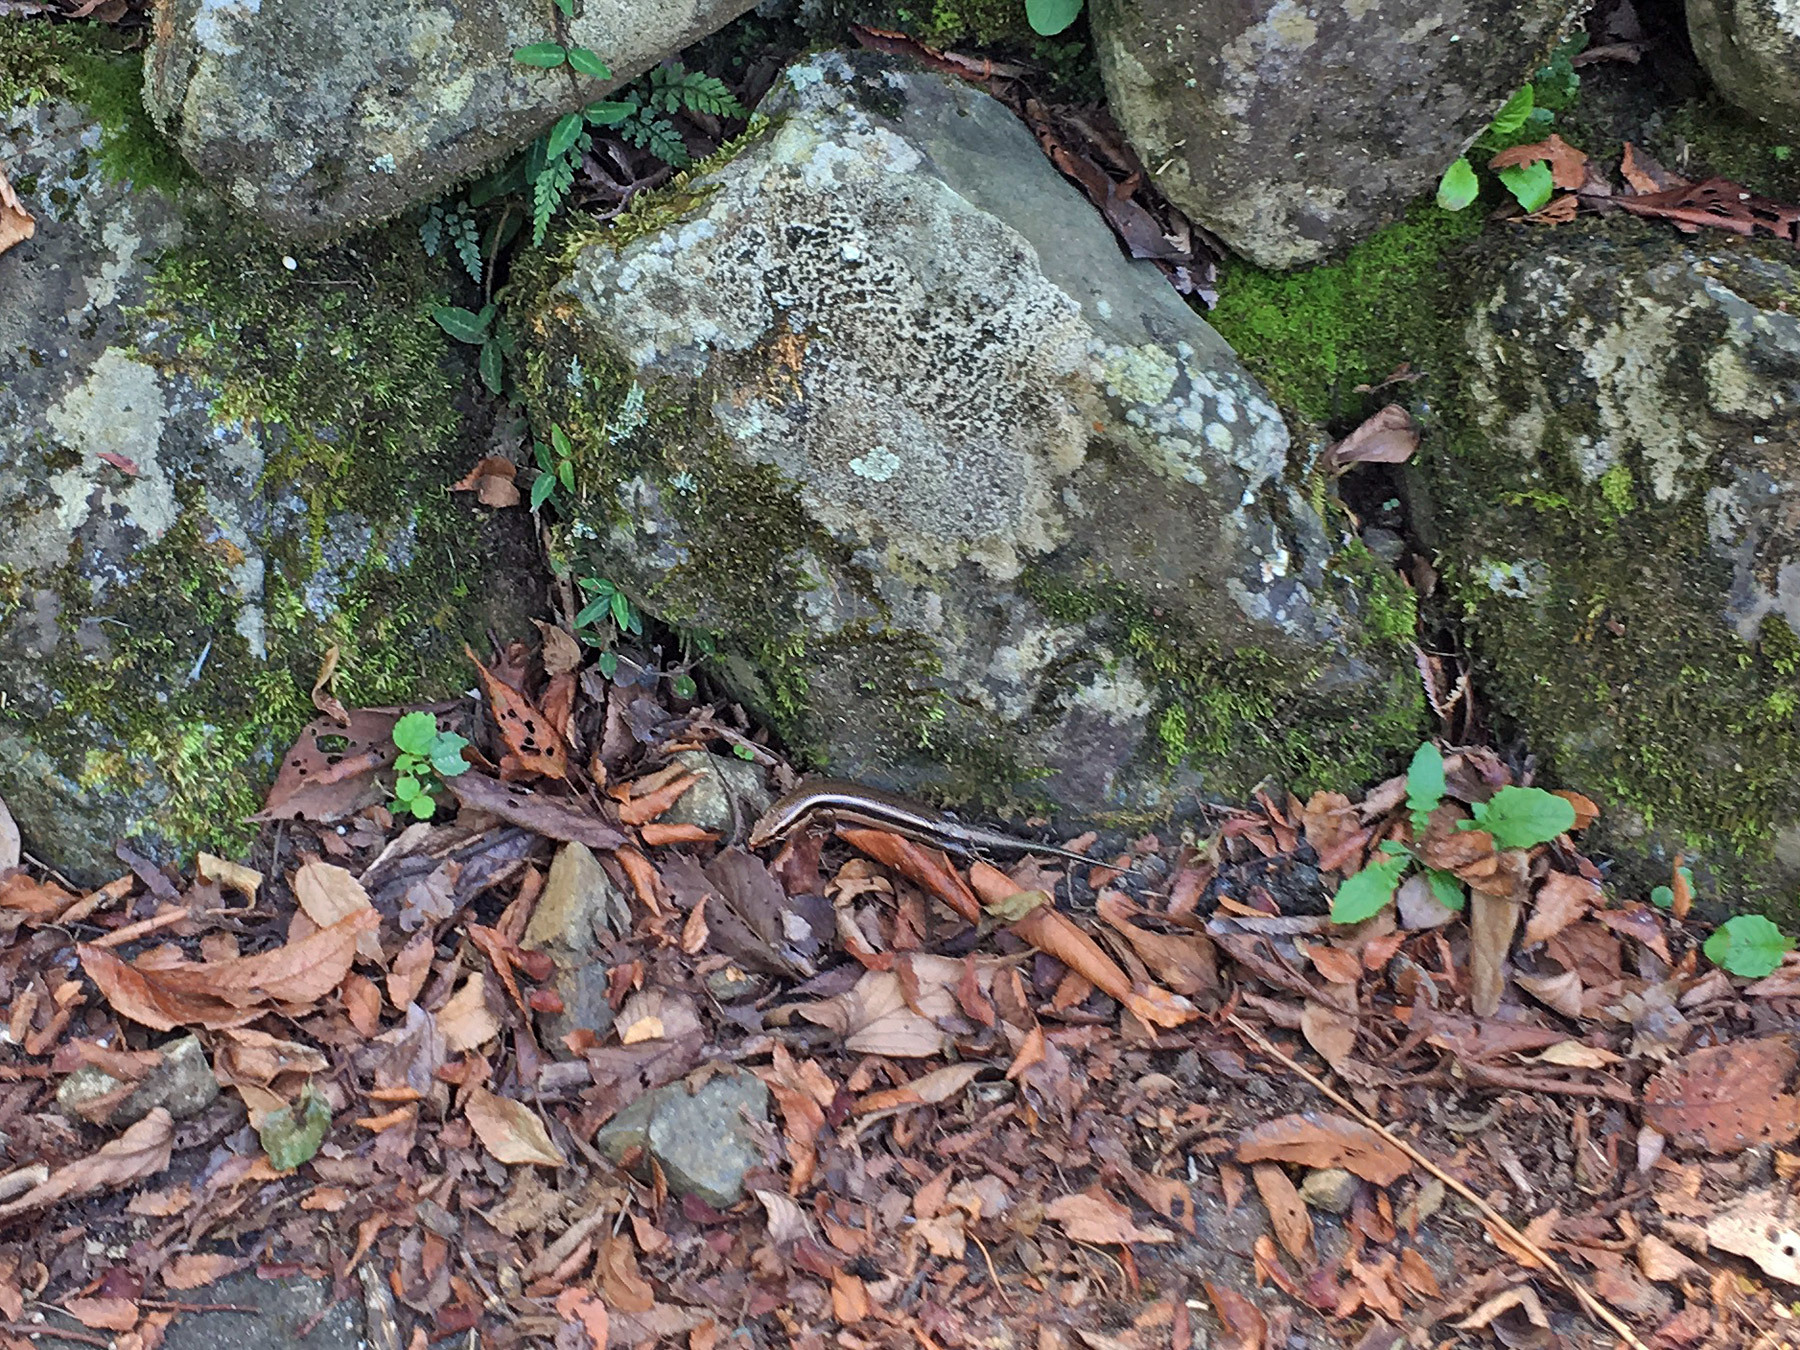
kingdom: Animalia
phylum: Chordata
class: Squamata
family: Scincidae
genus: Plestiodon
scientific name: Plestiodon japonicus
